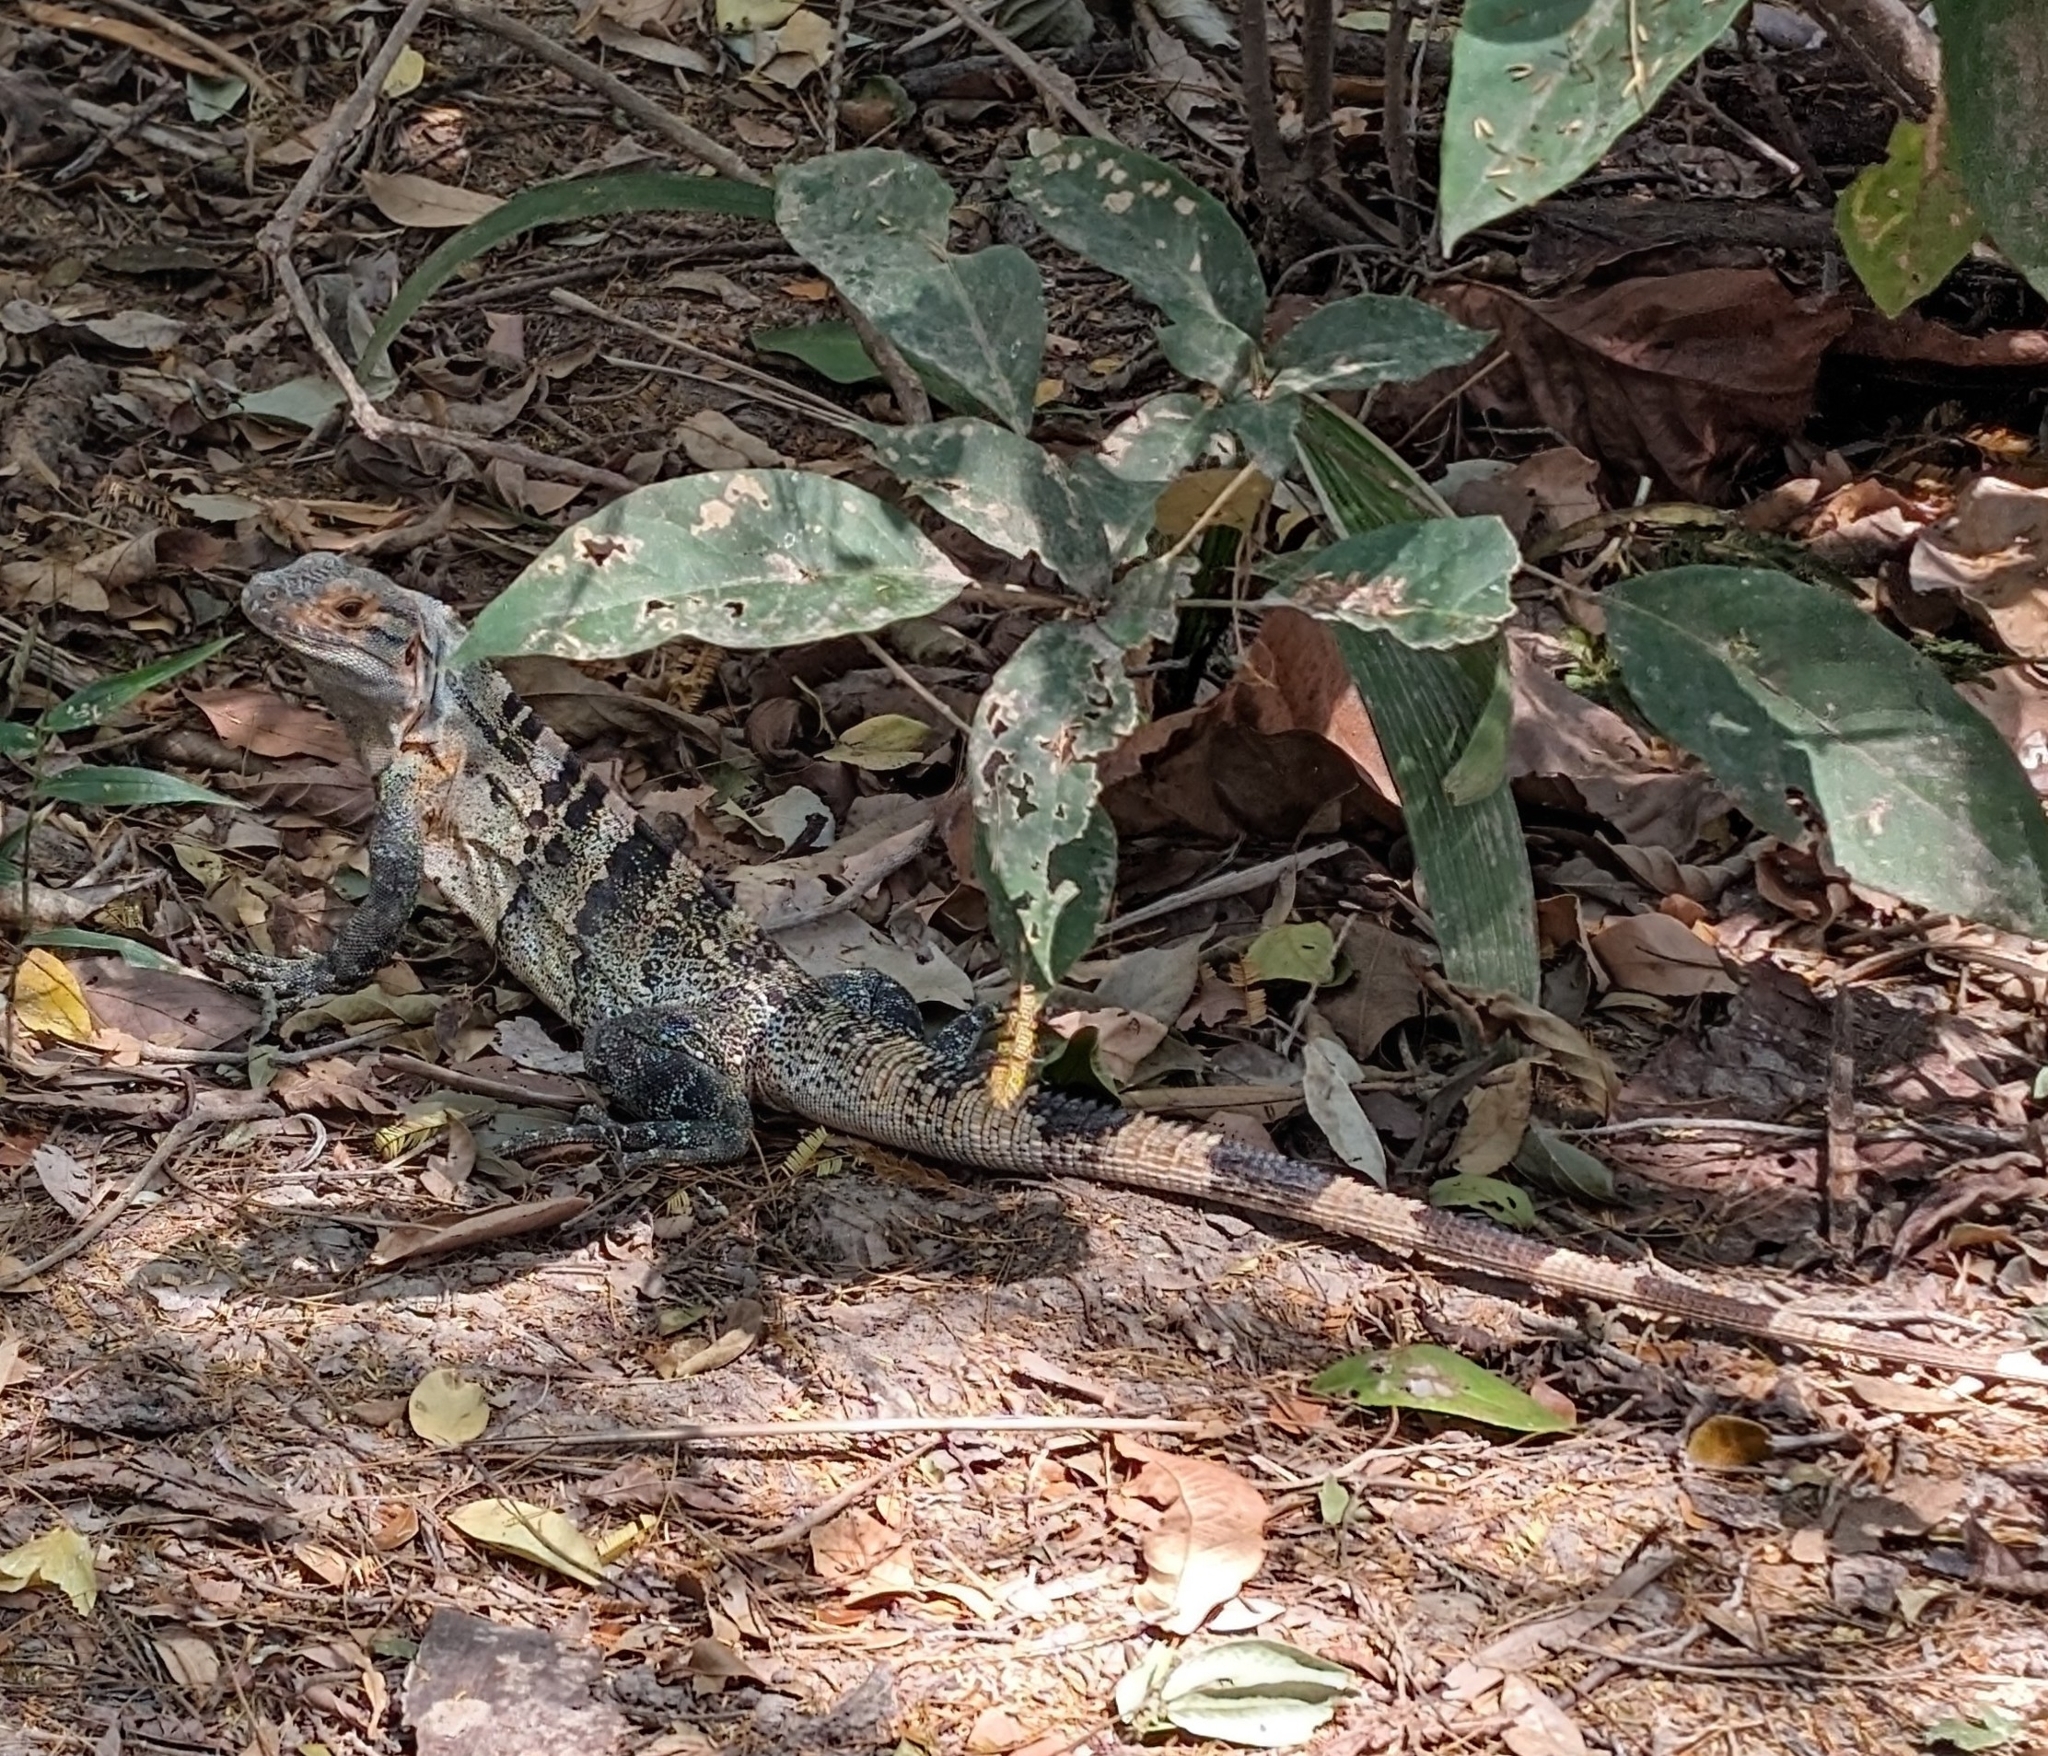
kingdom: Animalia
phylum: Chordata
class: Squamata
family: Iguanidae
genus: Ctenosaura
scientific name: Ctenosaura similis
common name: Black spiny-tailed iguana
